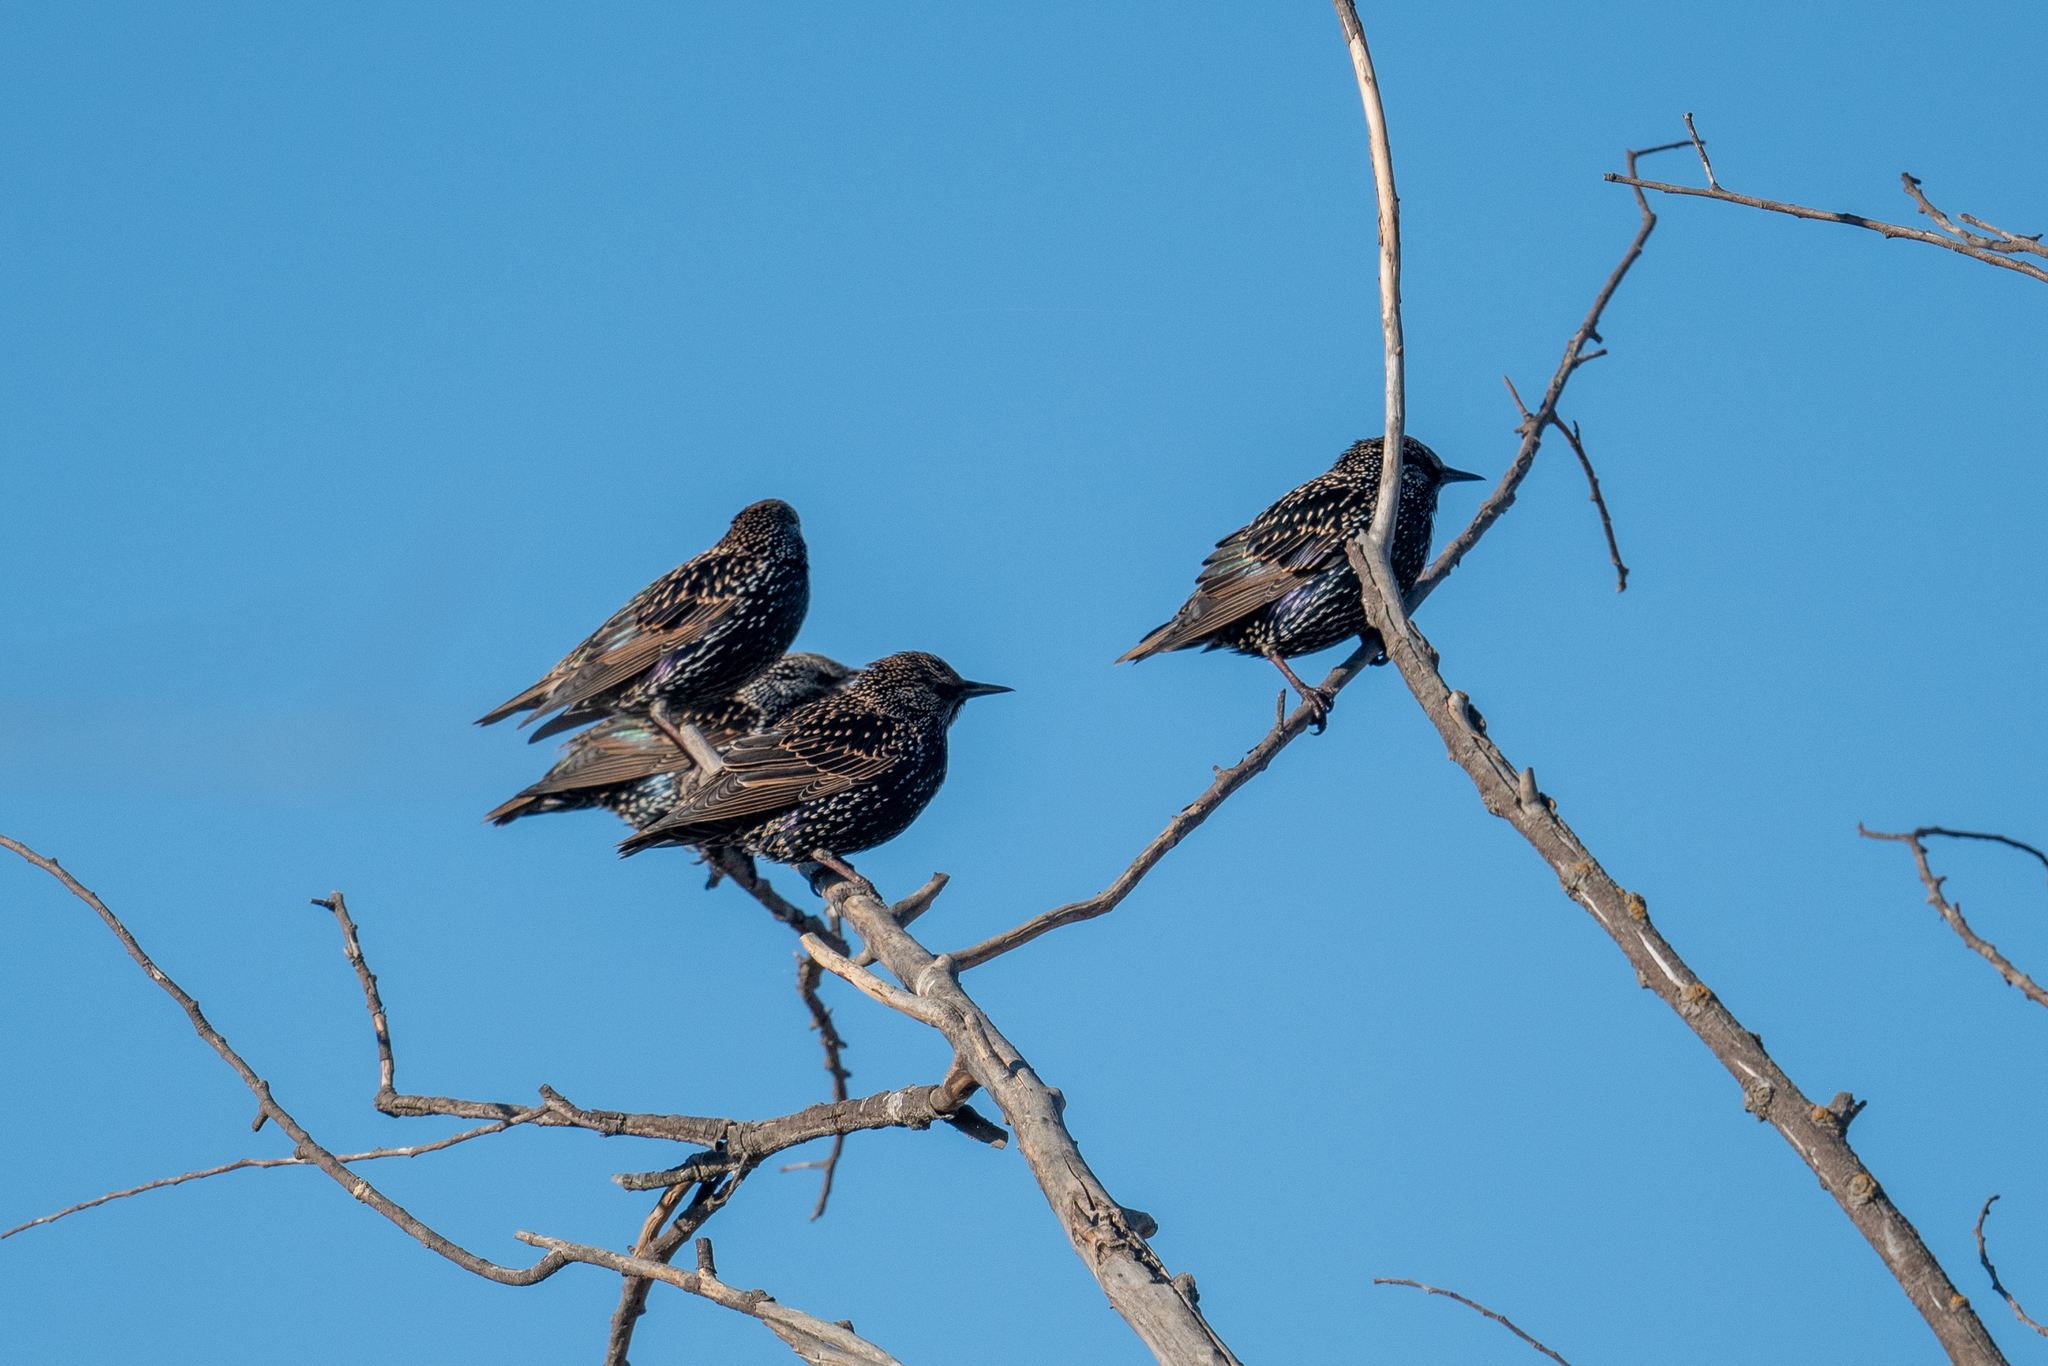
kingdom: Animalia
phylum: Chordata
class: Aves
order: Passeriformes
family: Sturnidae
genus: Sturnus
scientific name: Sturnus vulgaris
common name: Common starling
